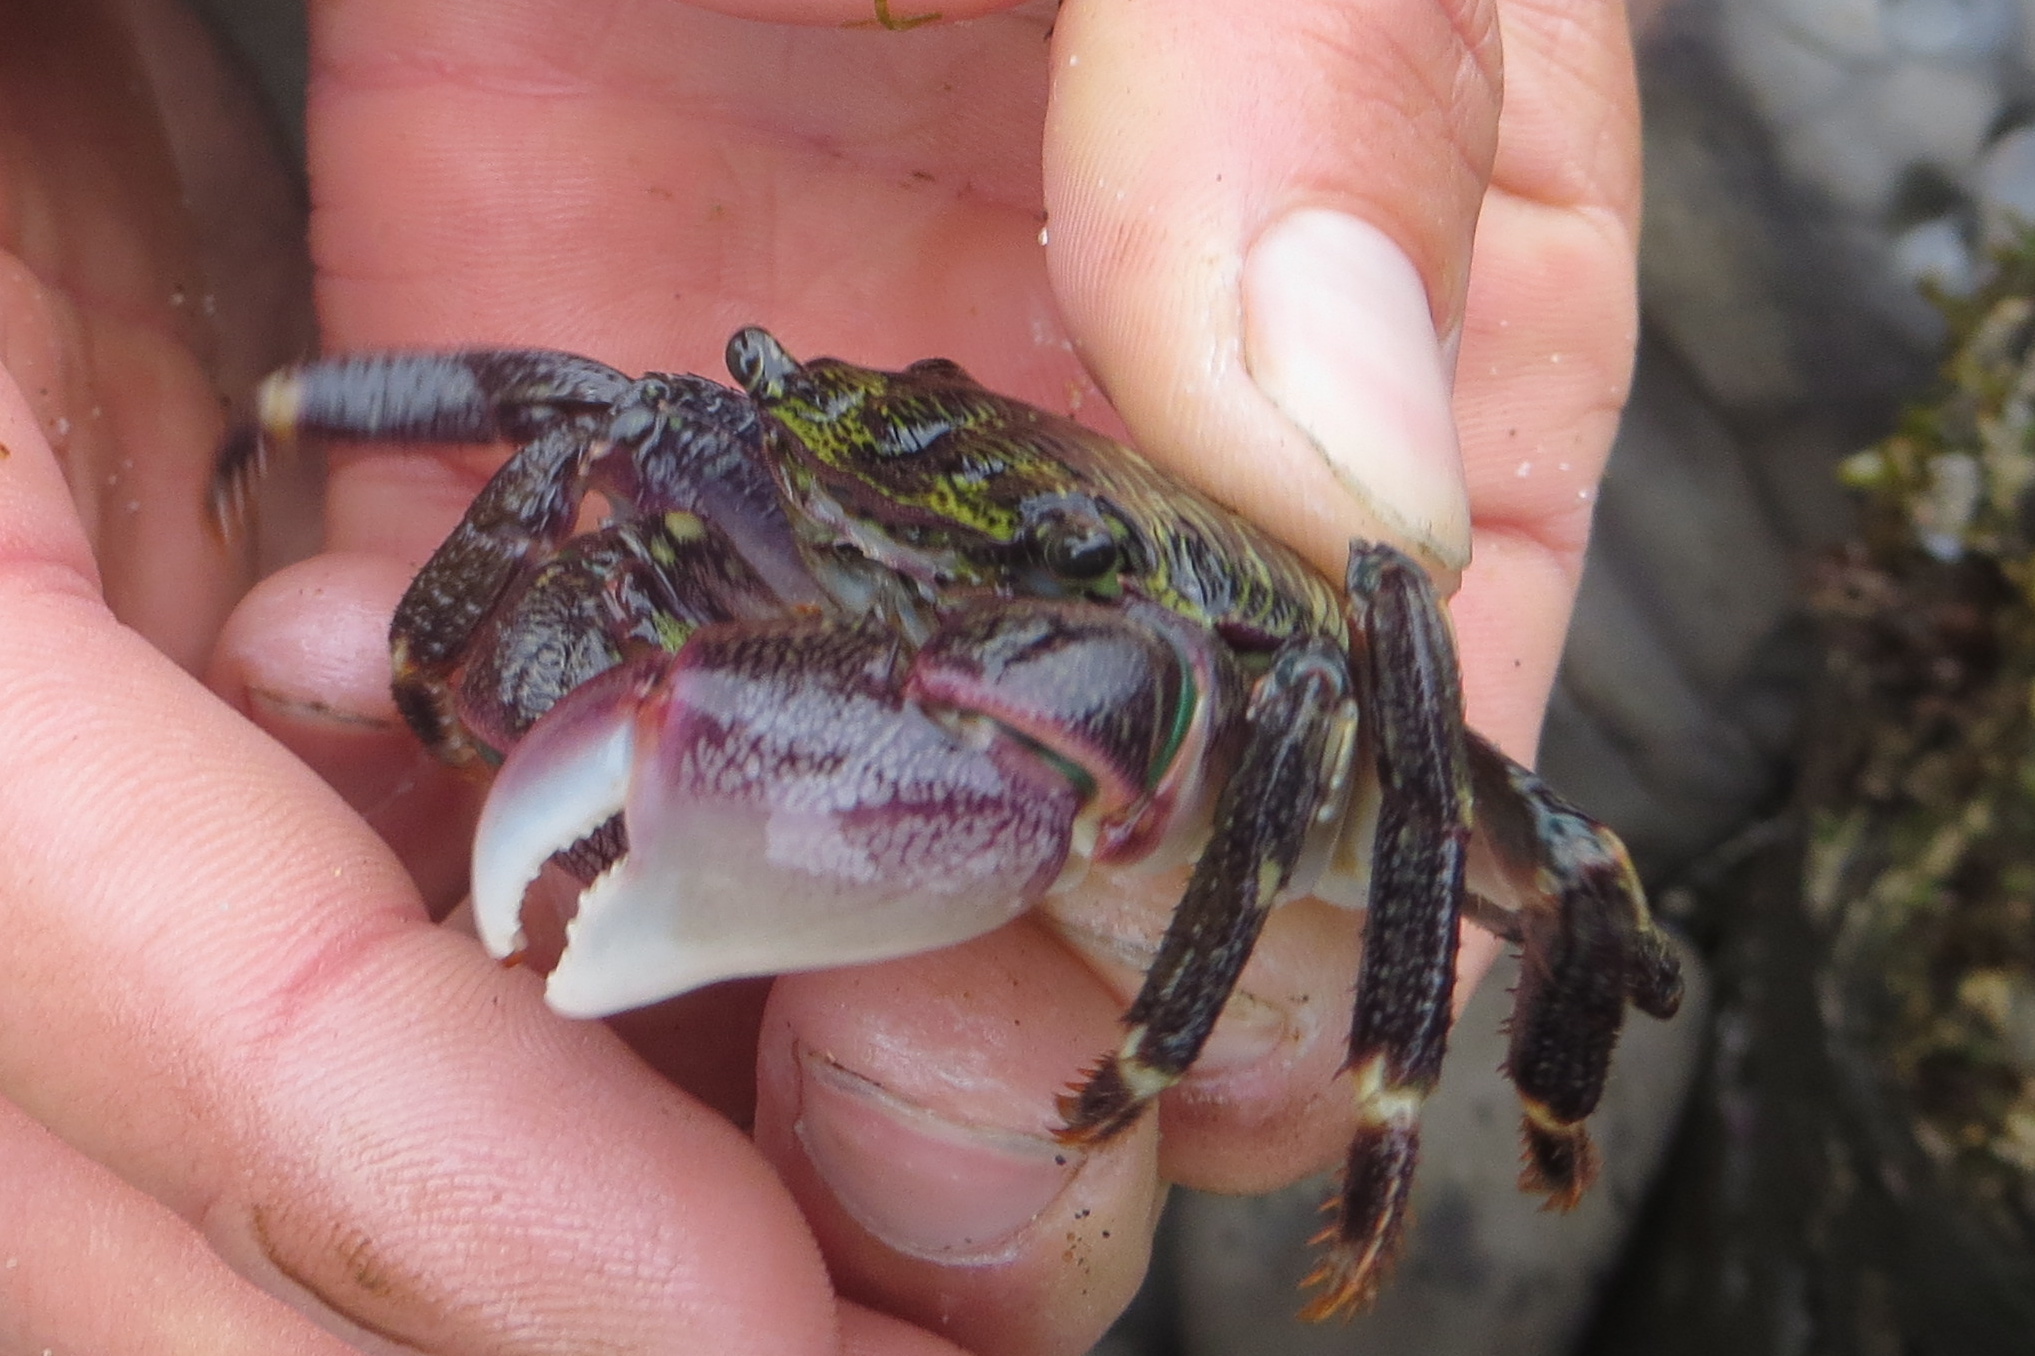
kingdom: Animalia
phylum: Arthropoda
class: Malacostraca
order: Decapoda
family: Grapsidae
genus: Pachygrapsus
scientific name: Pachygrapsus crassipes
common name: Striped shore crab
